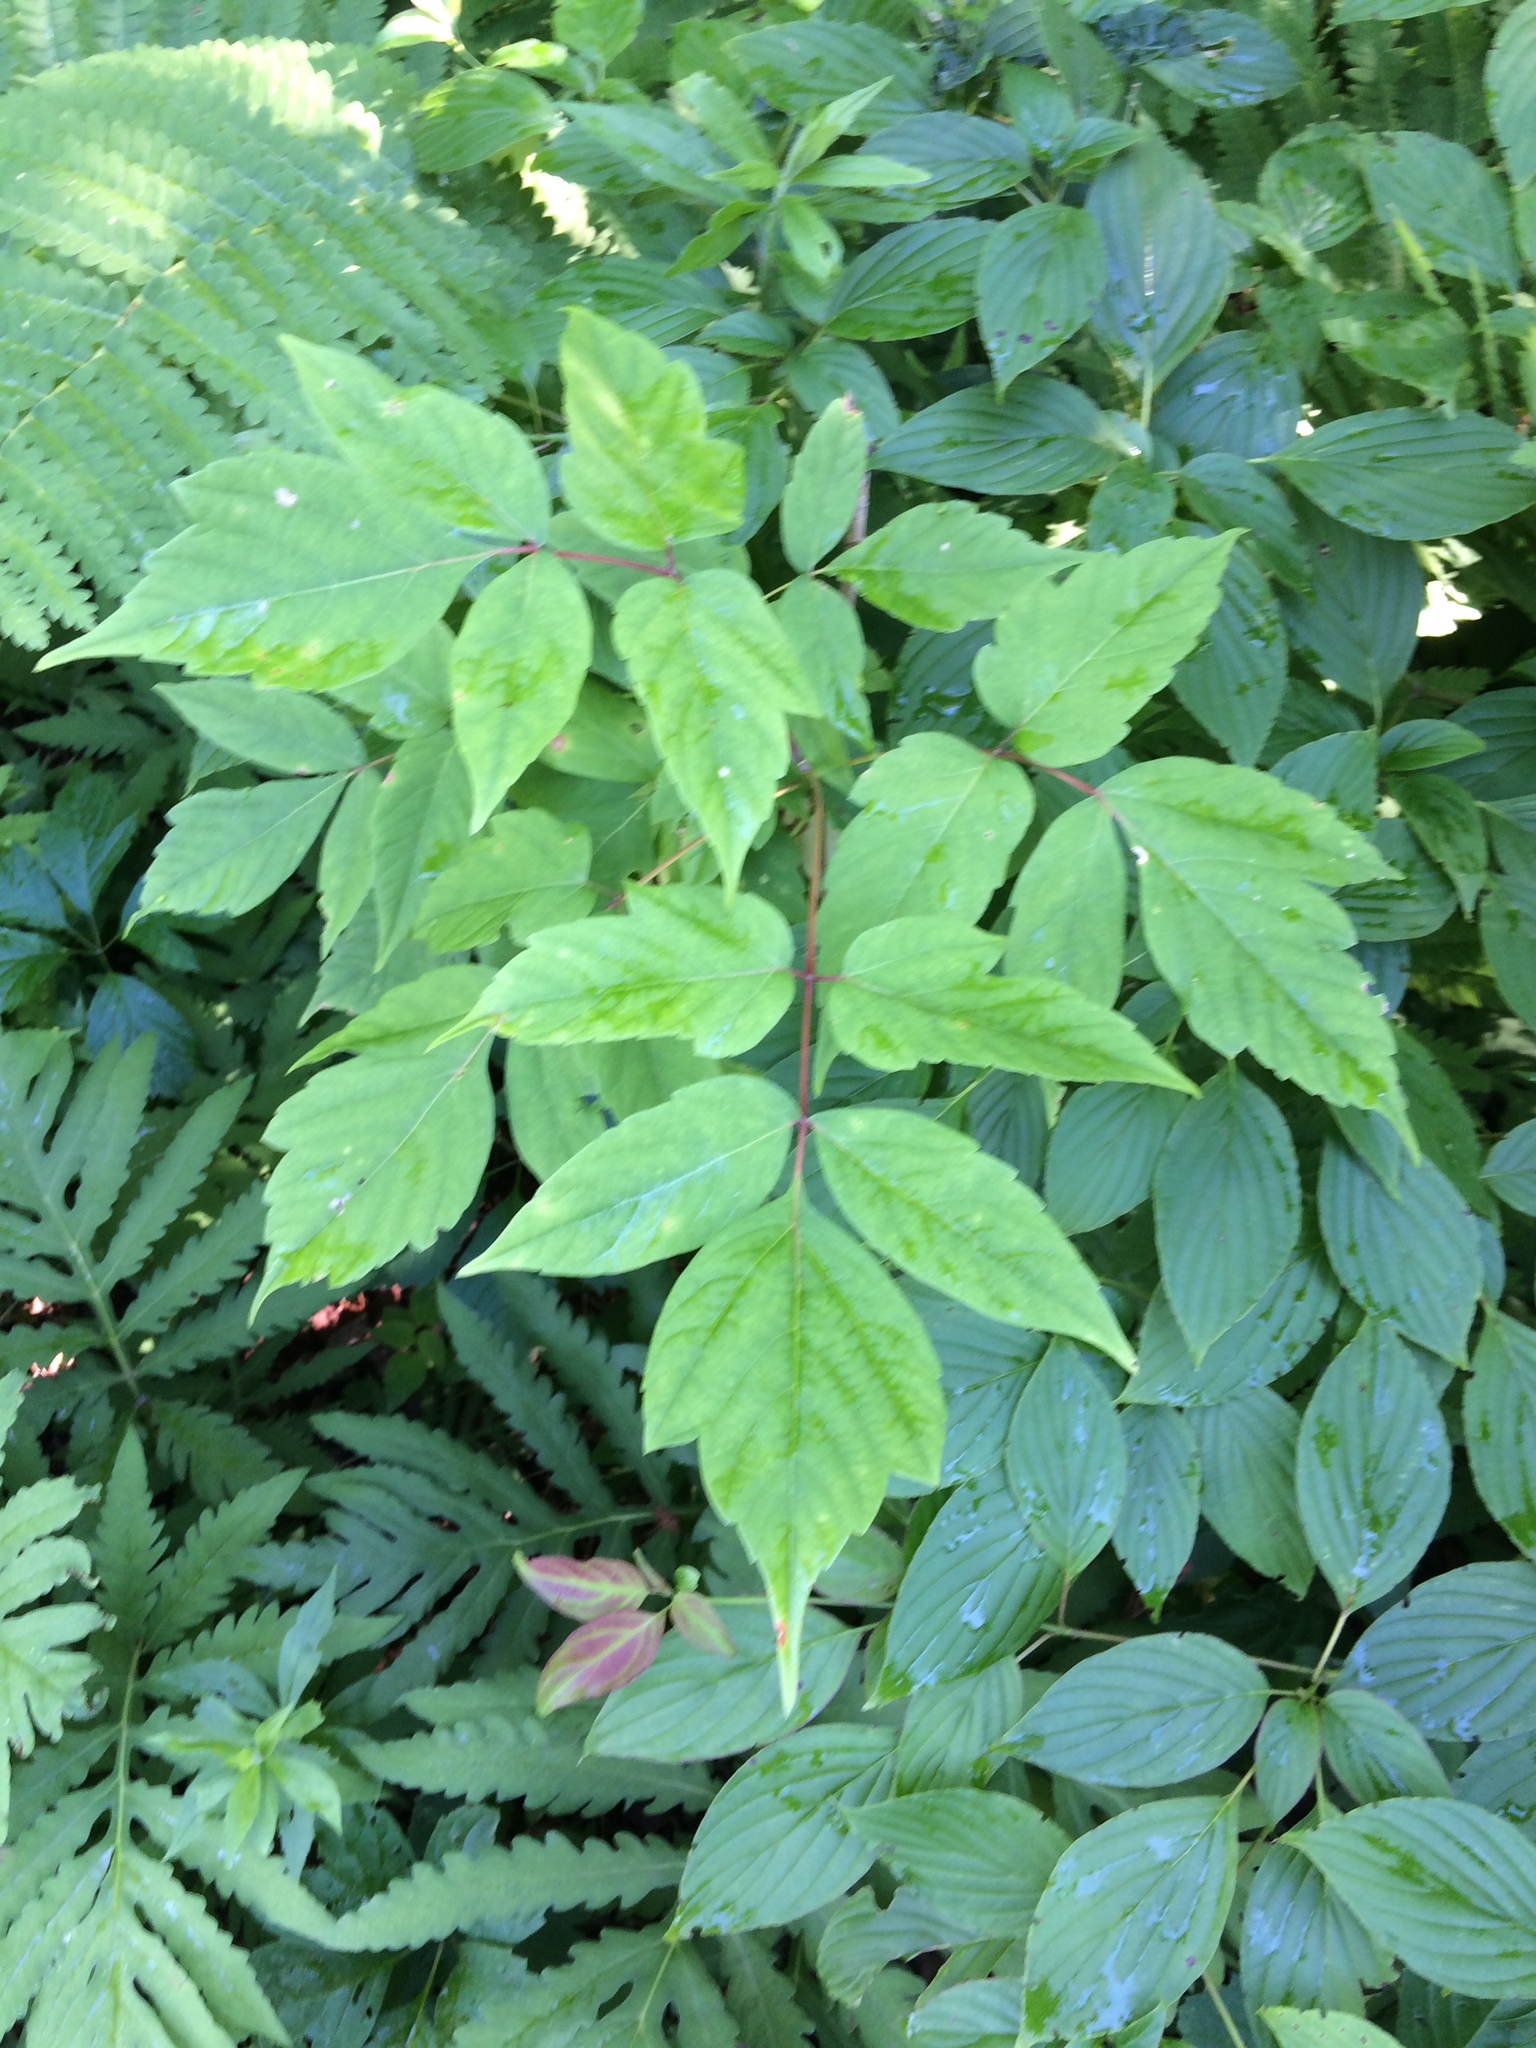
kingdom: Plantae
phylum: Tracheophyta
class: Magnoliopsida
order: Sapindales
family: Sapindaceae
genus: Acer
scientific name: Acer negundo
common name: Ashleaf maple
